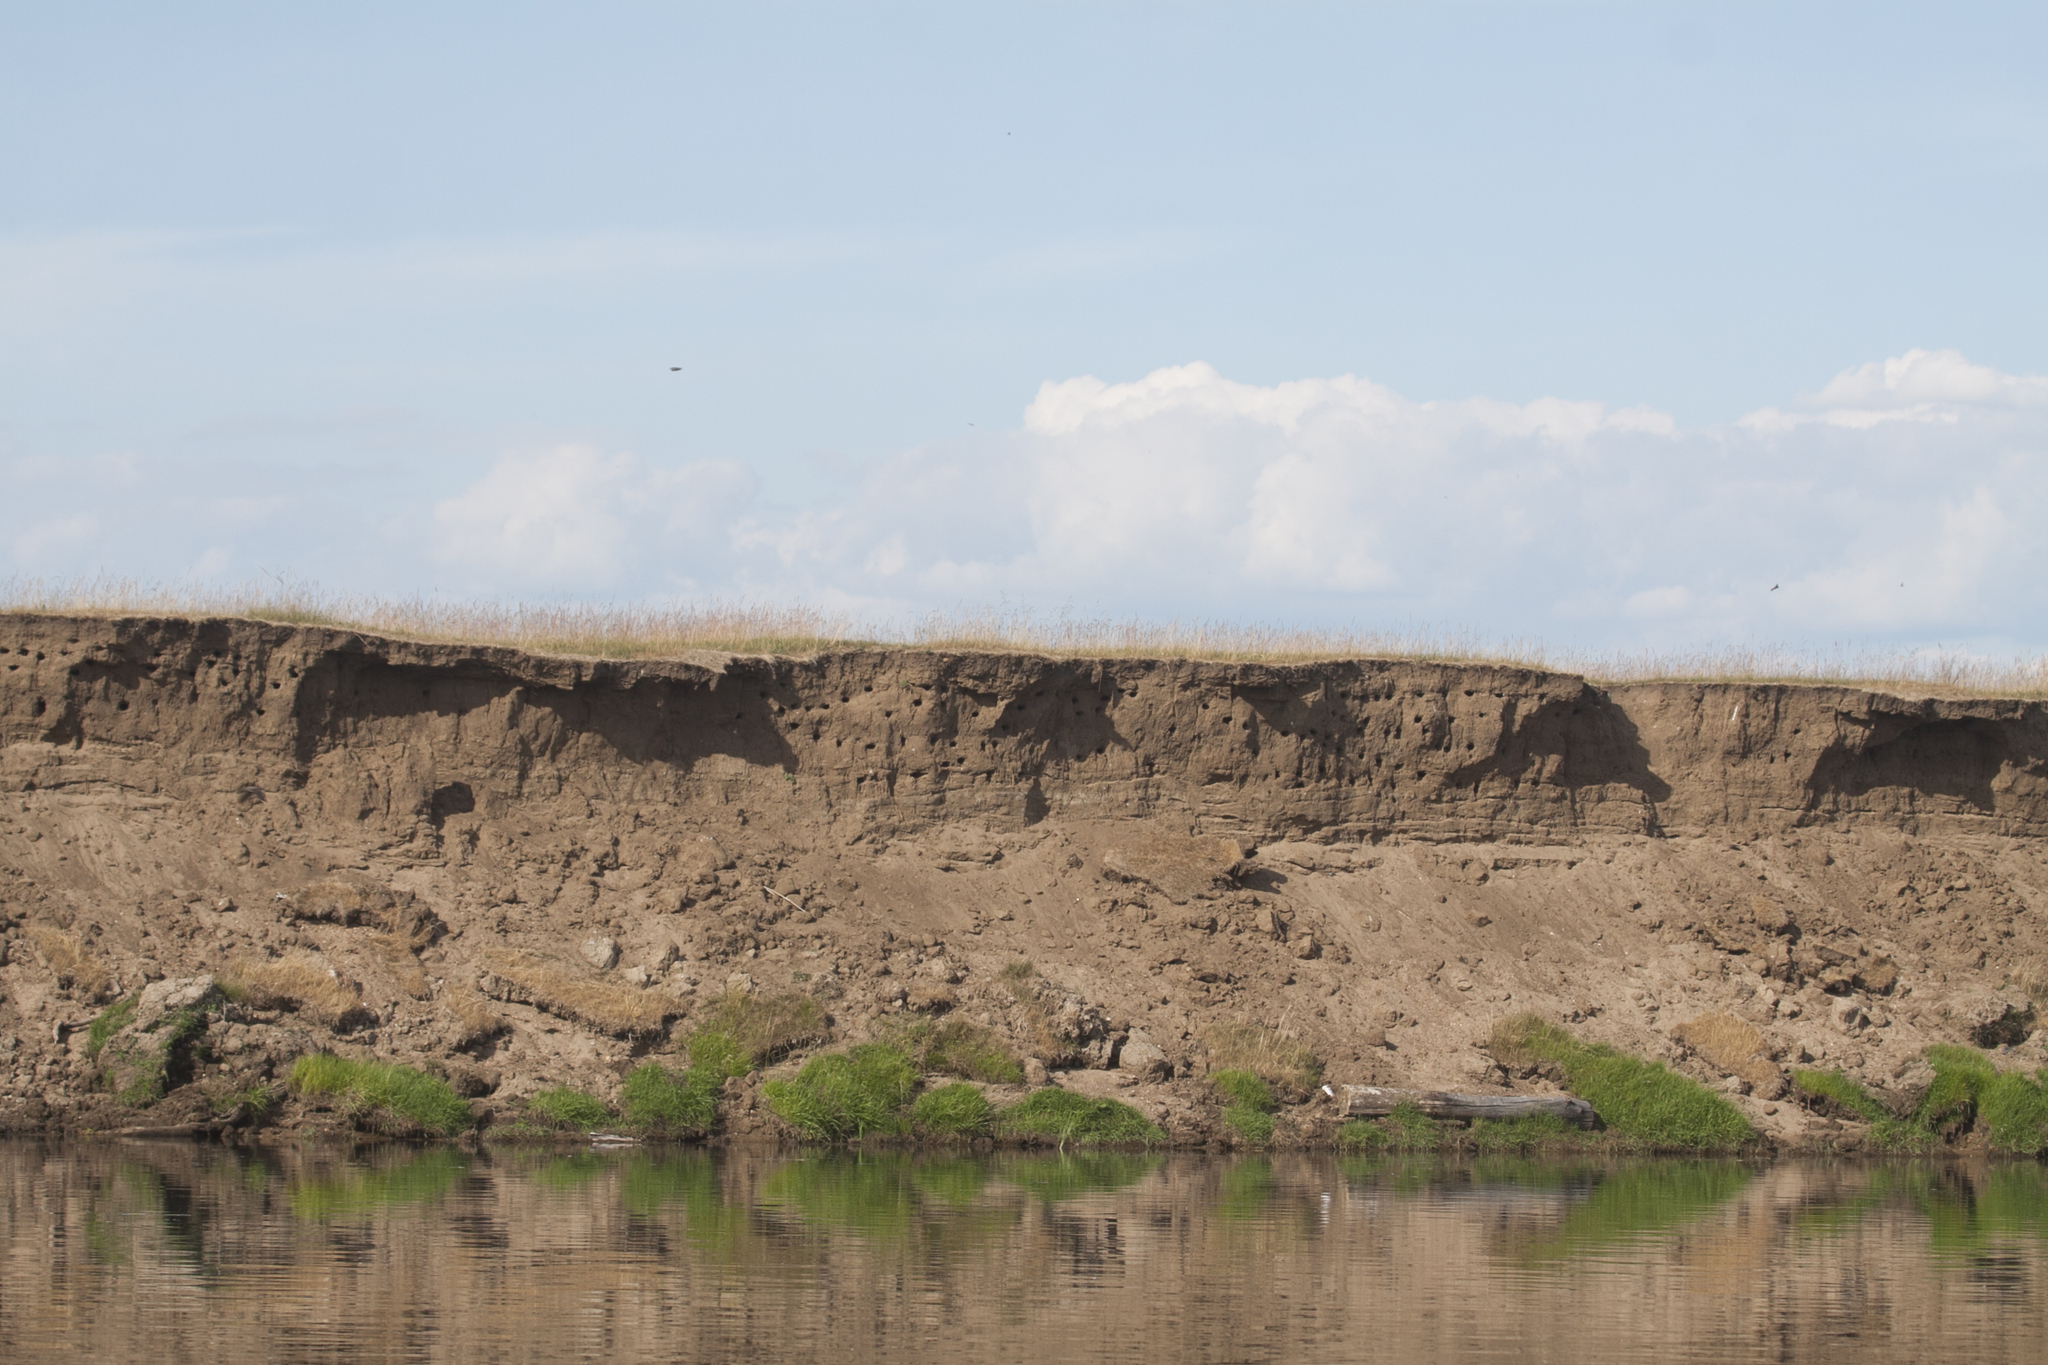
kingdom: Animalia
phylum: Chordata
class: Aves
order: Passeriformes
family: Hirundinidae
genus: Riparia
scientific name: Riparia riparia
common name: Sand martin
